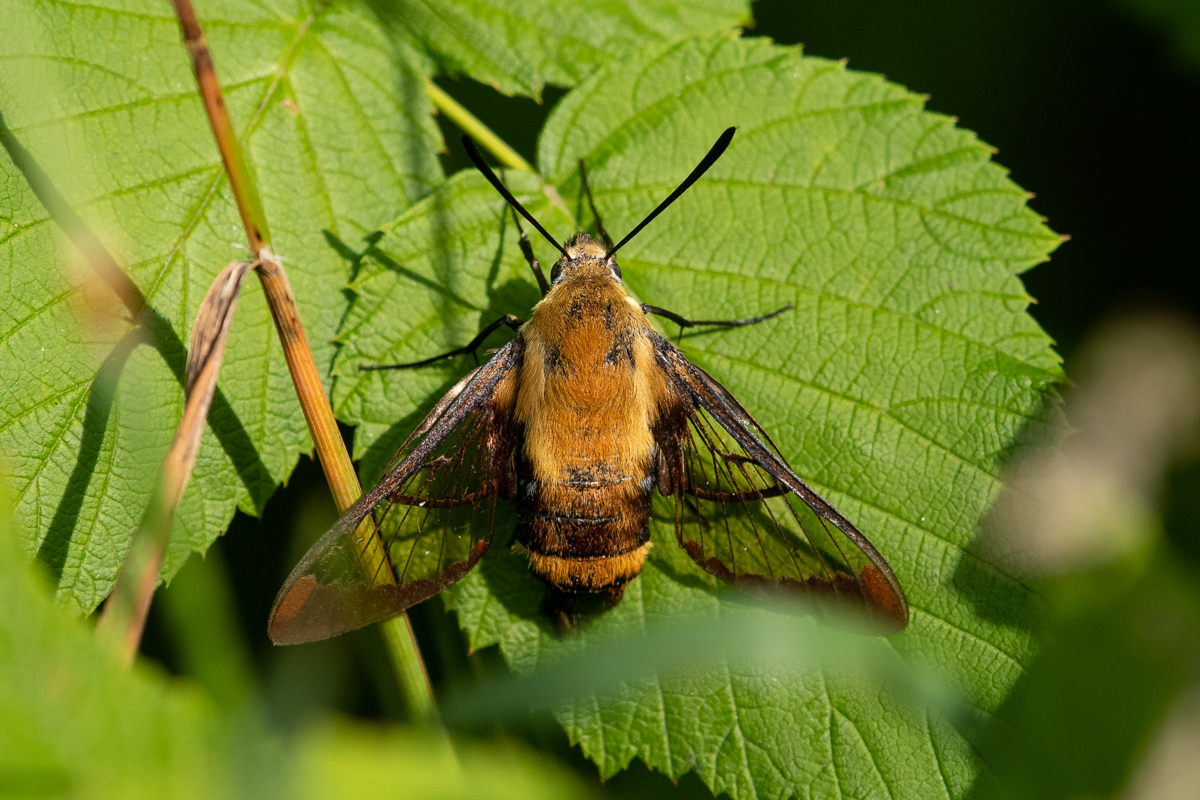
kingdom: Animalia
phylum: Arthropoda
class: Insecta
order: Lepidoptera
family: Sphingidae
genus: Hemaris
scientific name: Hemaris diffinis
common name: Bumblebee moth
